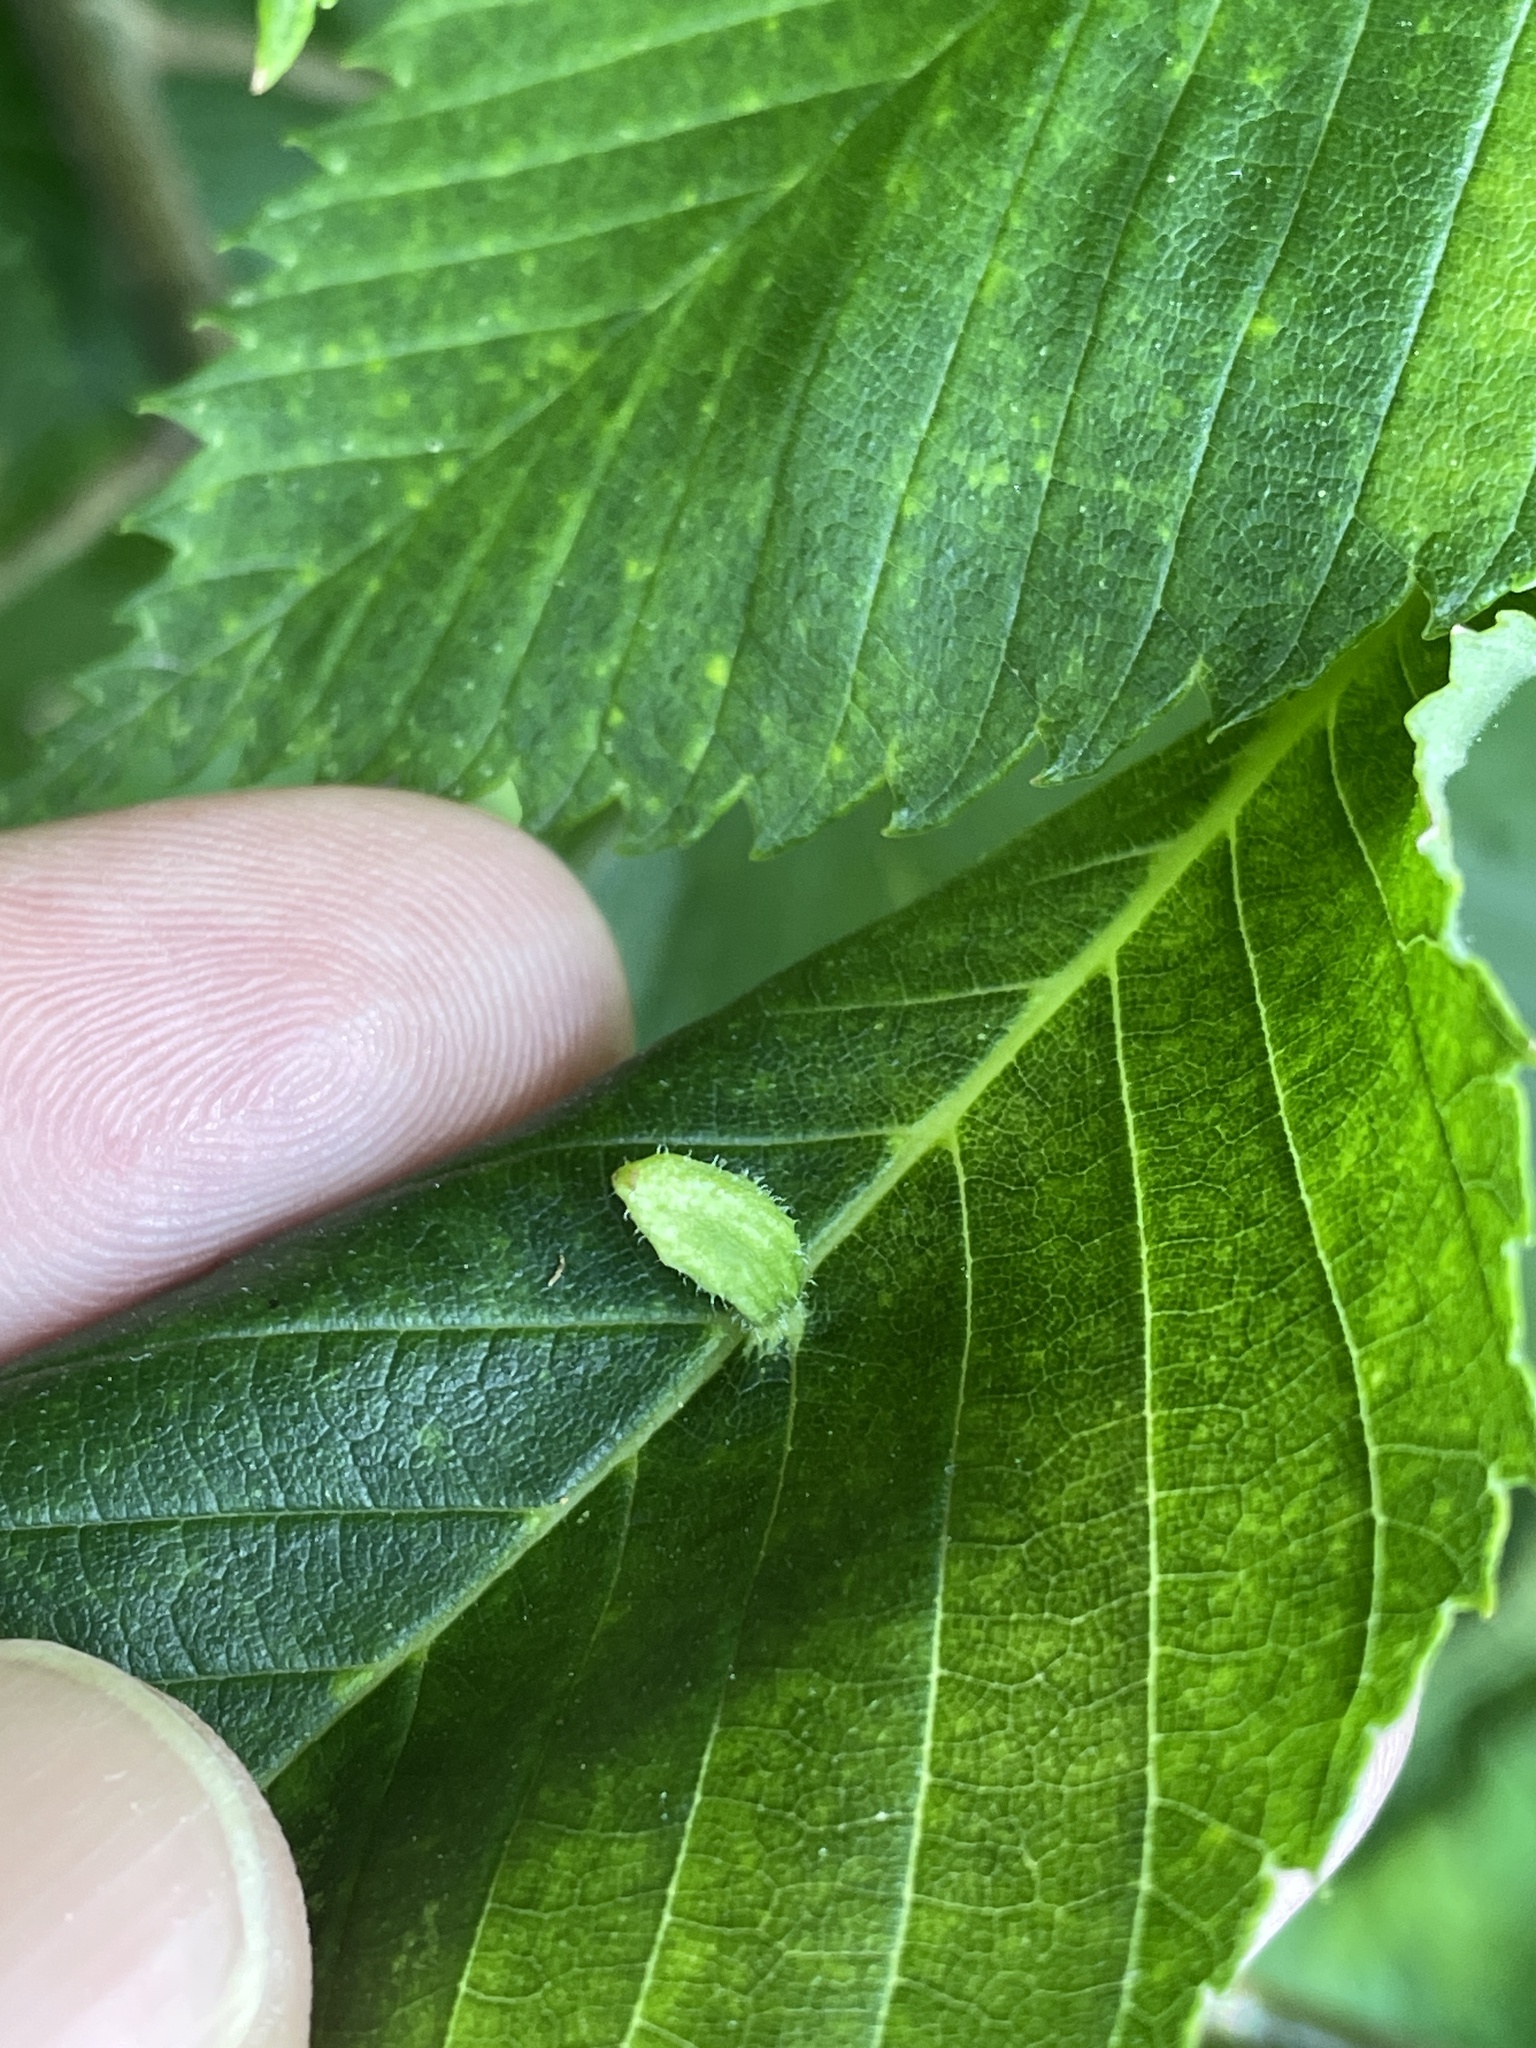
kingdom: Animalia
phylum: Arthropoda
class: Arachnida
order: Trombidiformes
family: Eriophyidae
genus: Aceria
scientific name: Aceria
